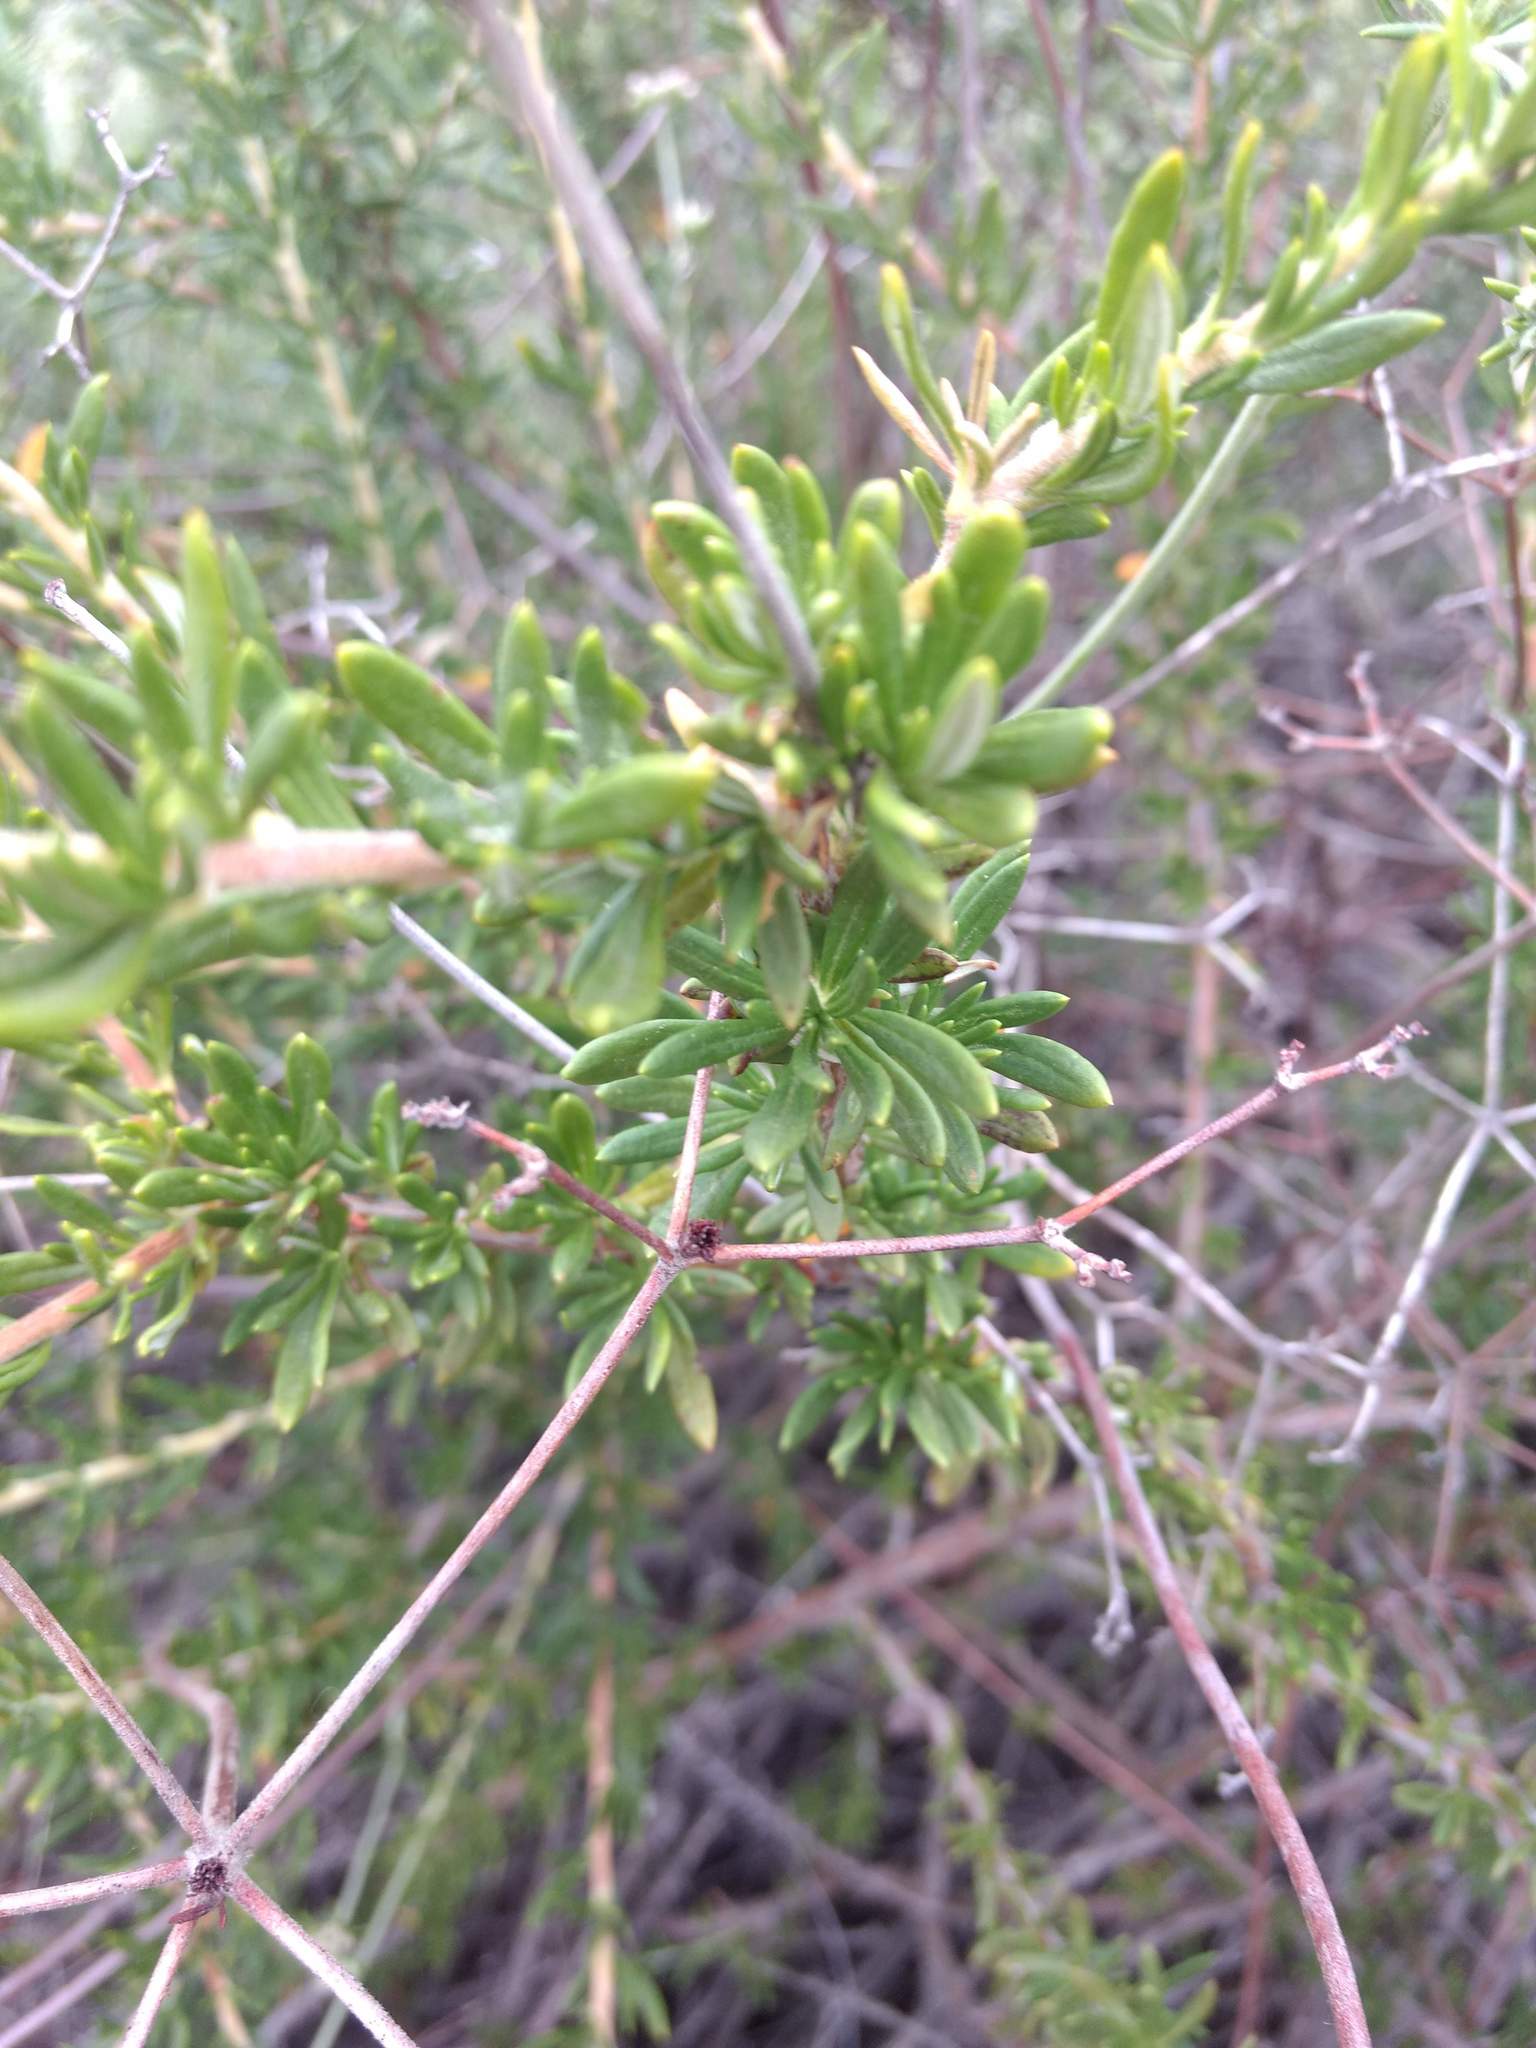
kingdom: Plantae
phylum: Tracheophyta
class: Magnoliopsida
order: Caryophyllales
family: Polygonaceae
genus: Eriogonum
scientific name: Eriogonum fasciculatum
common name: California wild buckwheat
